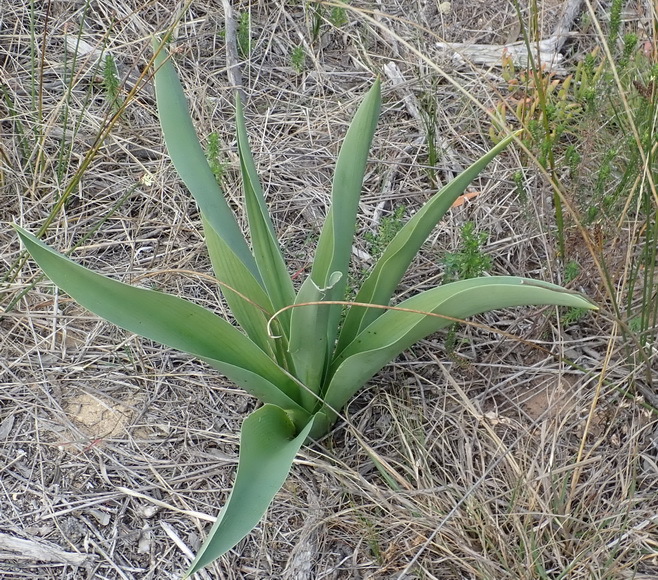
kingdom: Plantae
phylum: Tracheophyta
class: Liliopsida
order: Asparagales
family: Asparagaceae
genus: Drimia
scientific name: Drimia capensis
